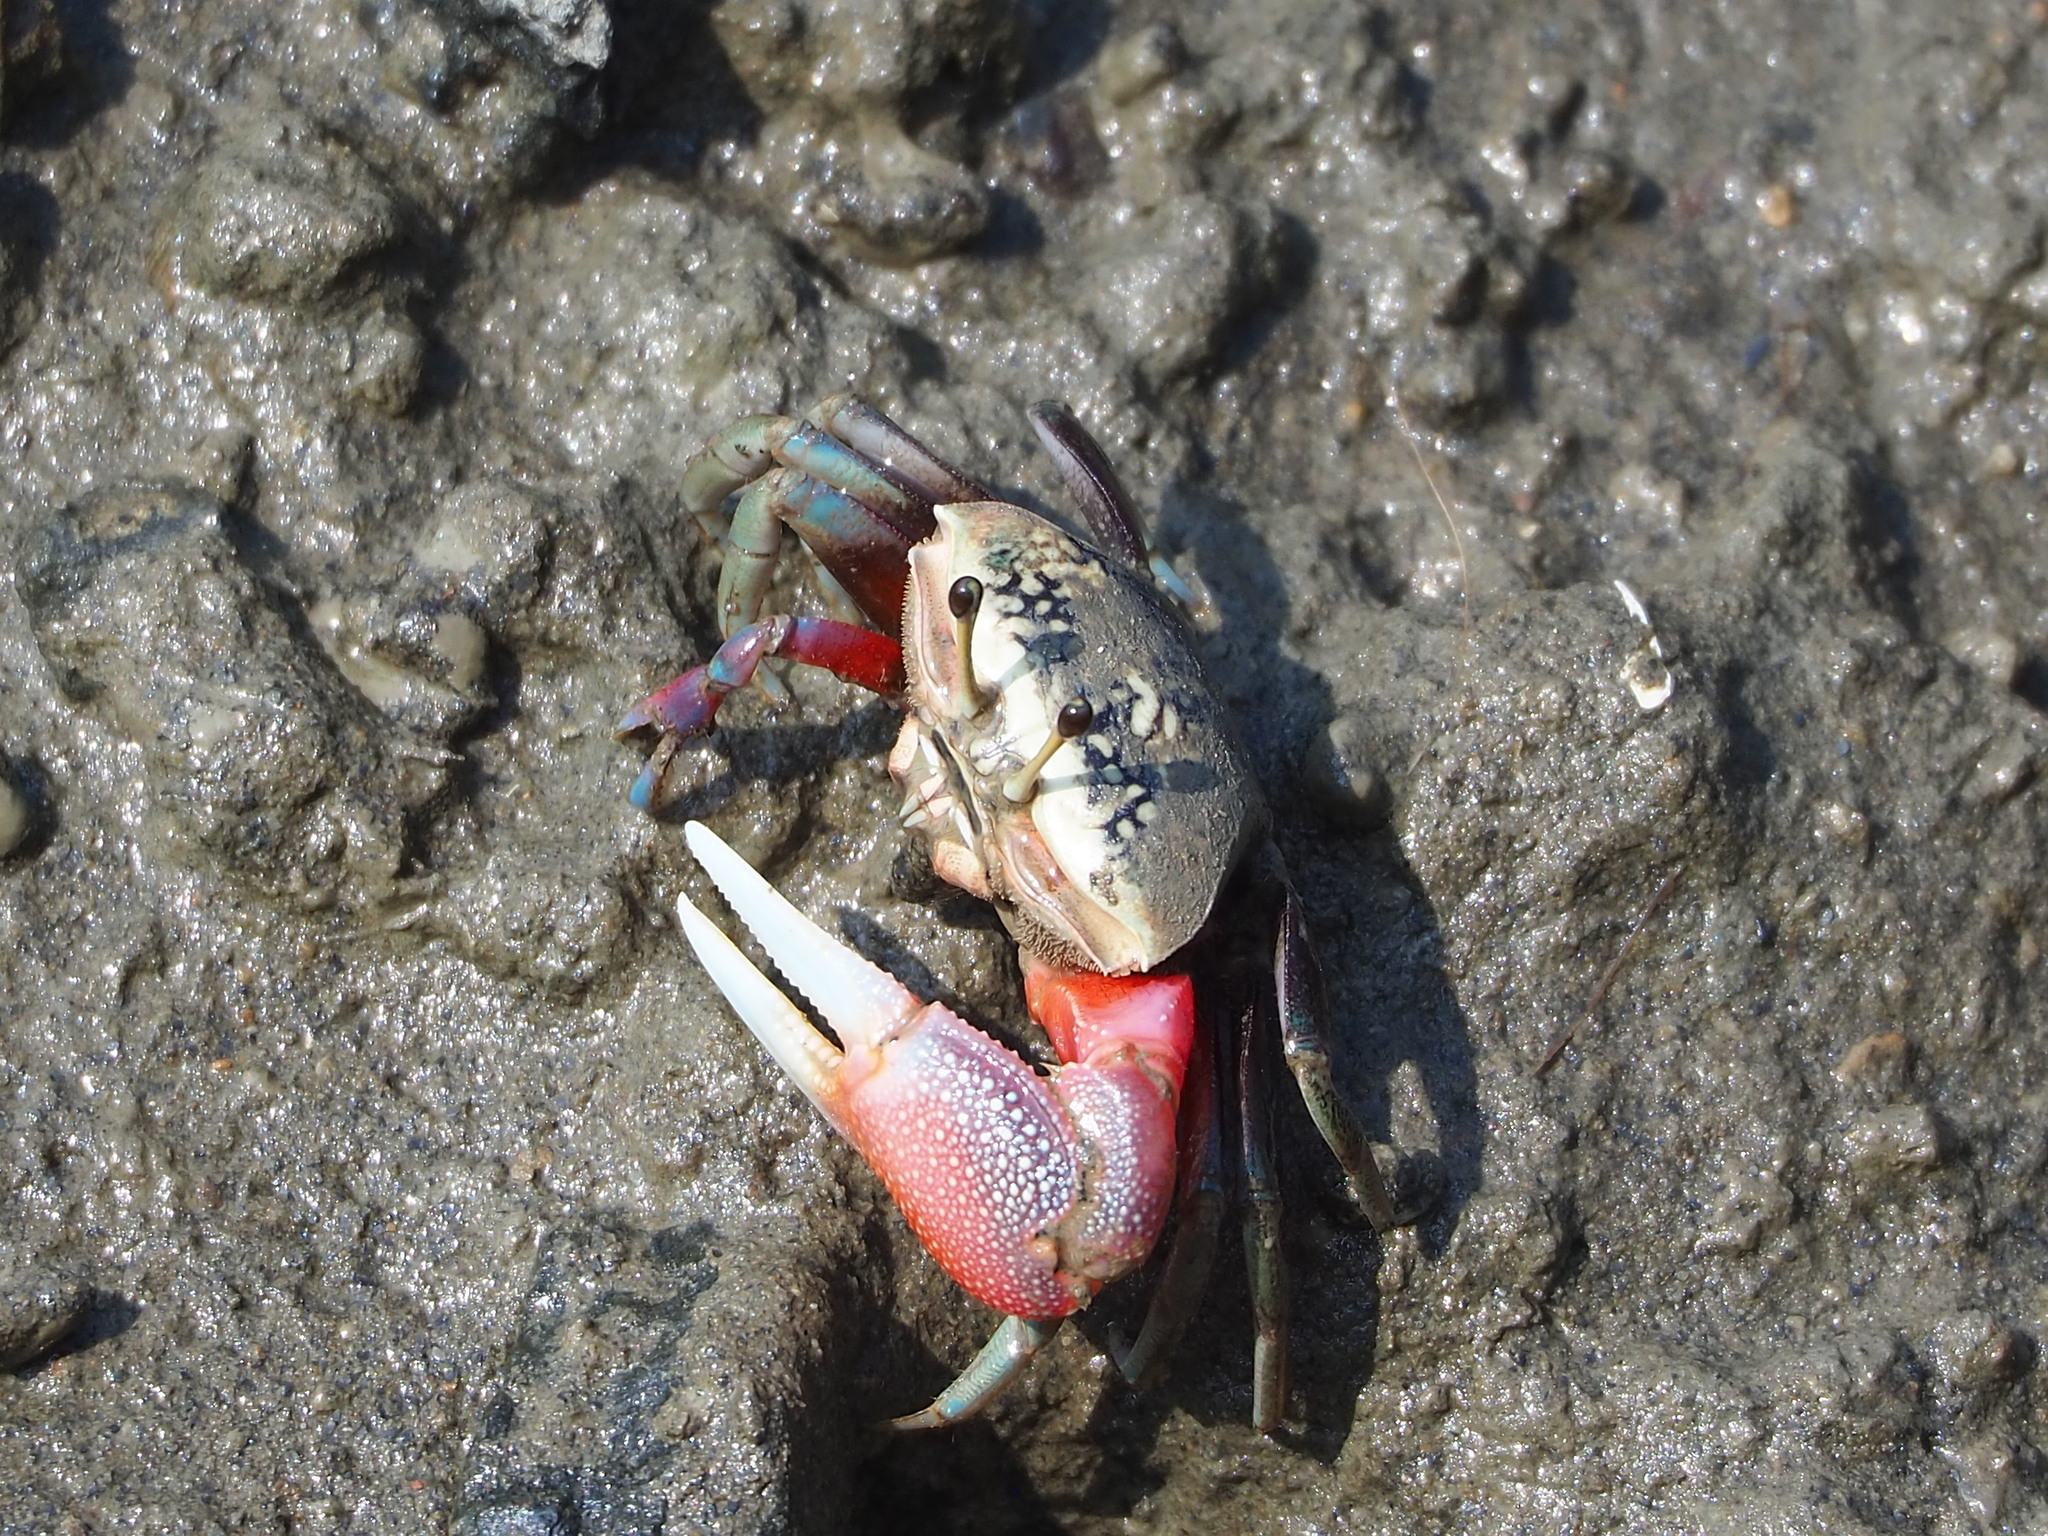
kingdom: Animalia
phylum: Arthropoda
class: Malacostraca
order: Decapoda
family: Ocypodidae
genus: Tubuca
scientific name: Tubuca arcuata
